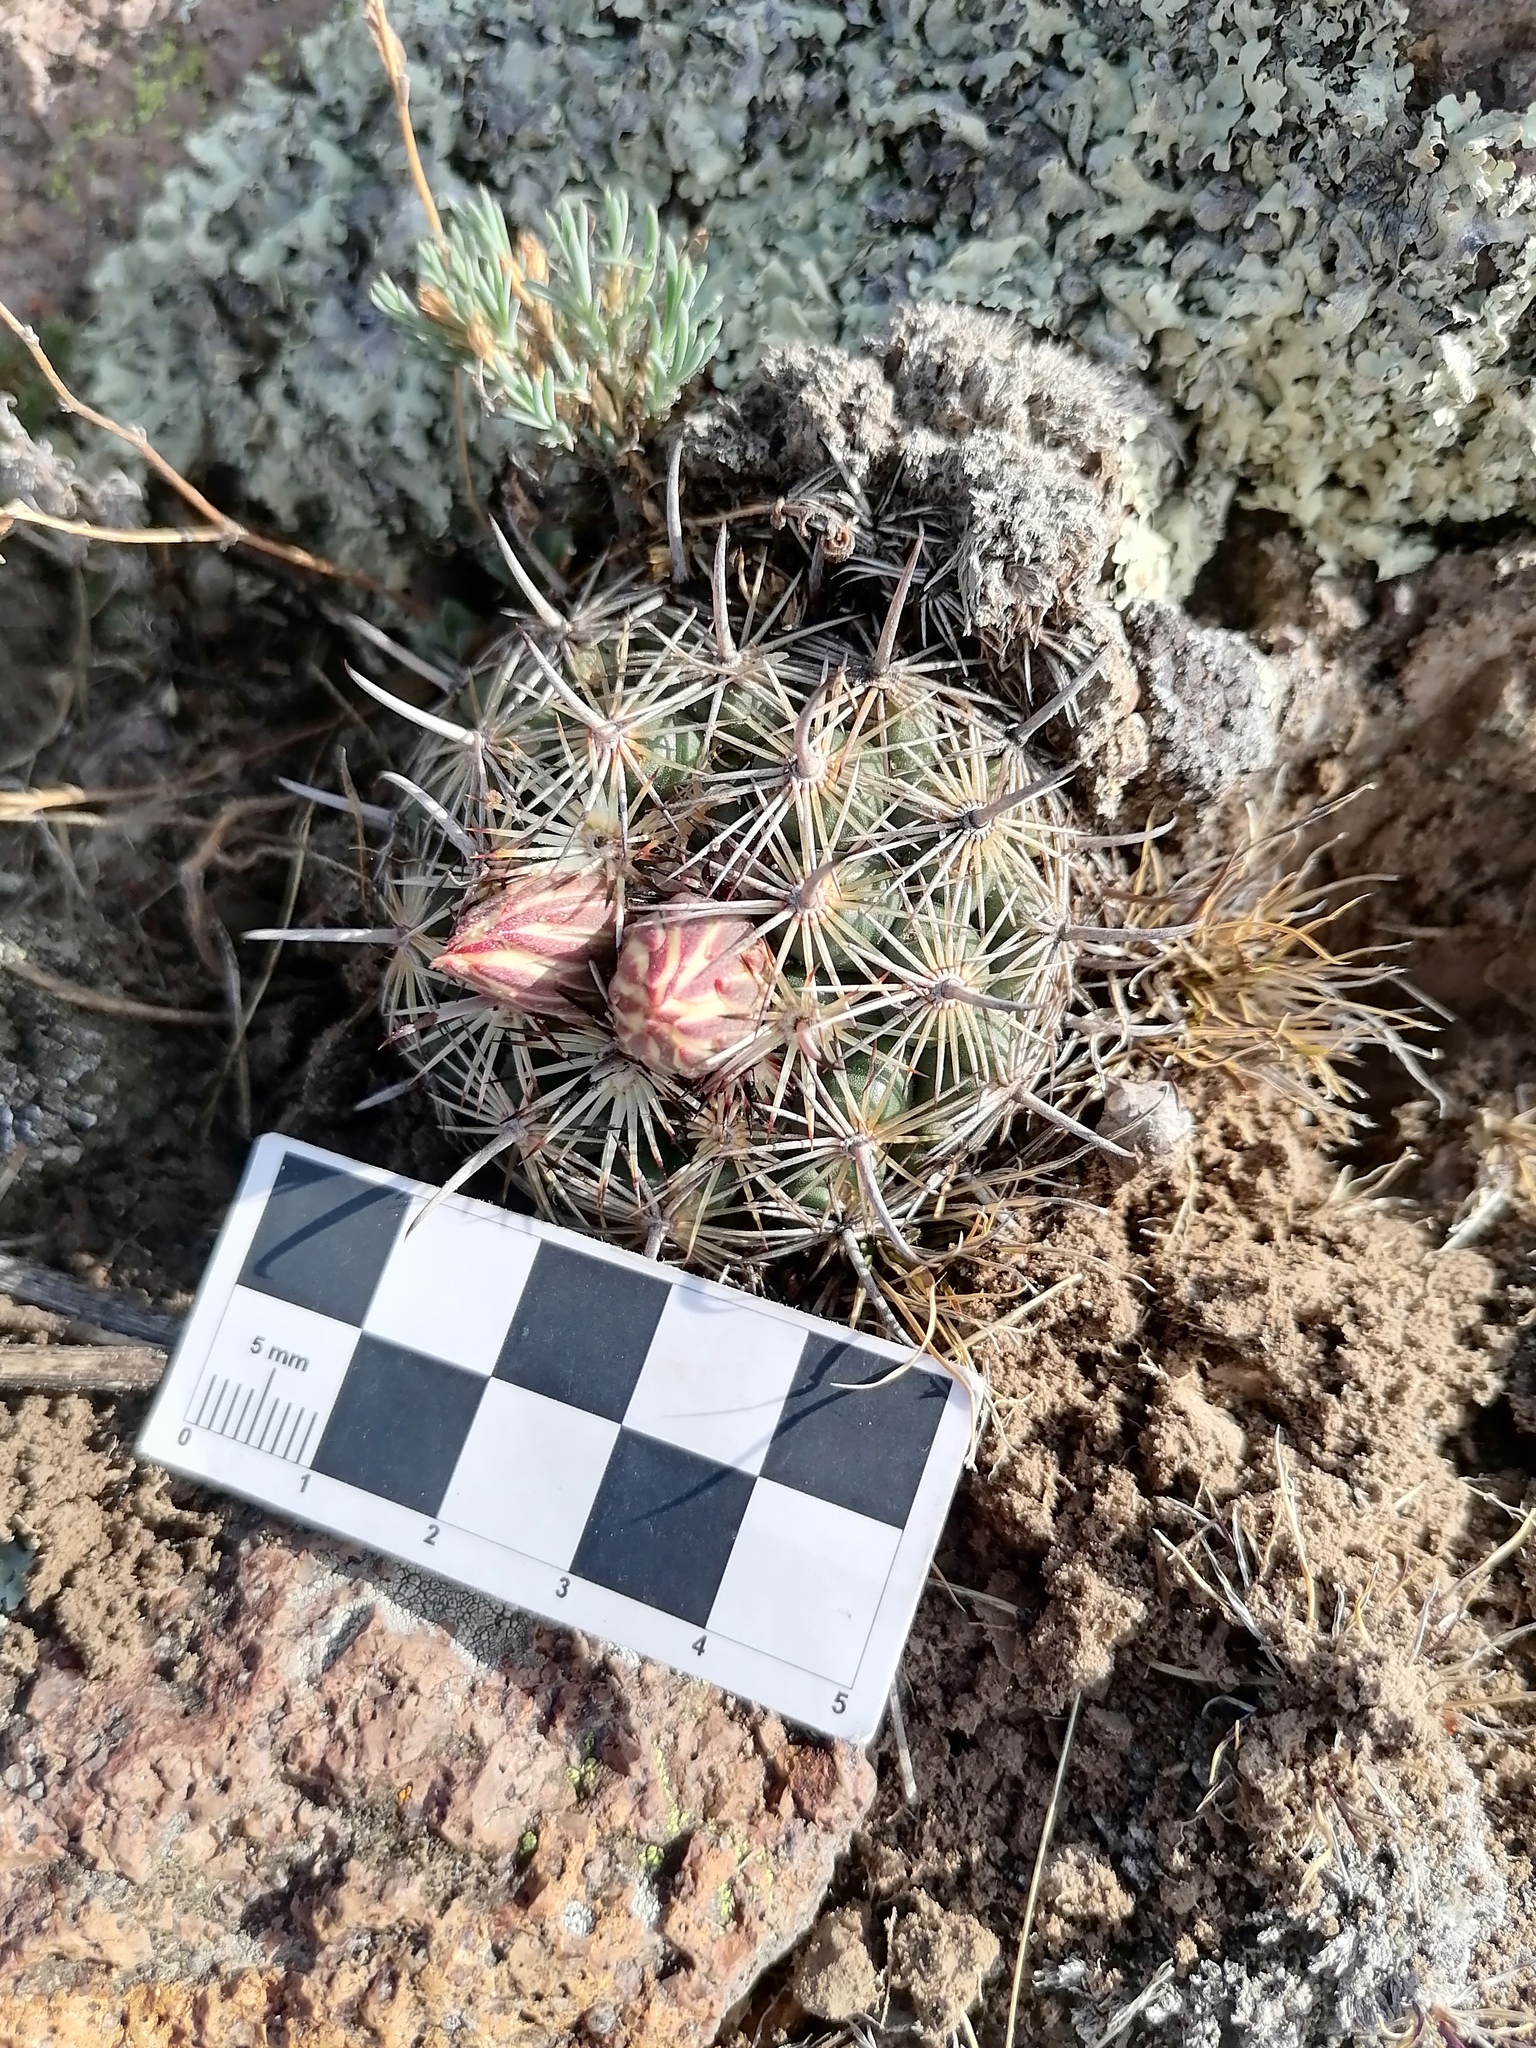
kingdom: Plantae
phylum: Tracheophyta
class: Magnoliopsida
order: Caryophyllales
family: Cactaceae
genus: Coryphantha
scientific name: Coryphantha cornifera
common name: Rhinoceros cactus
